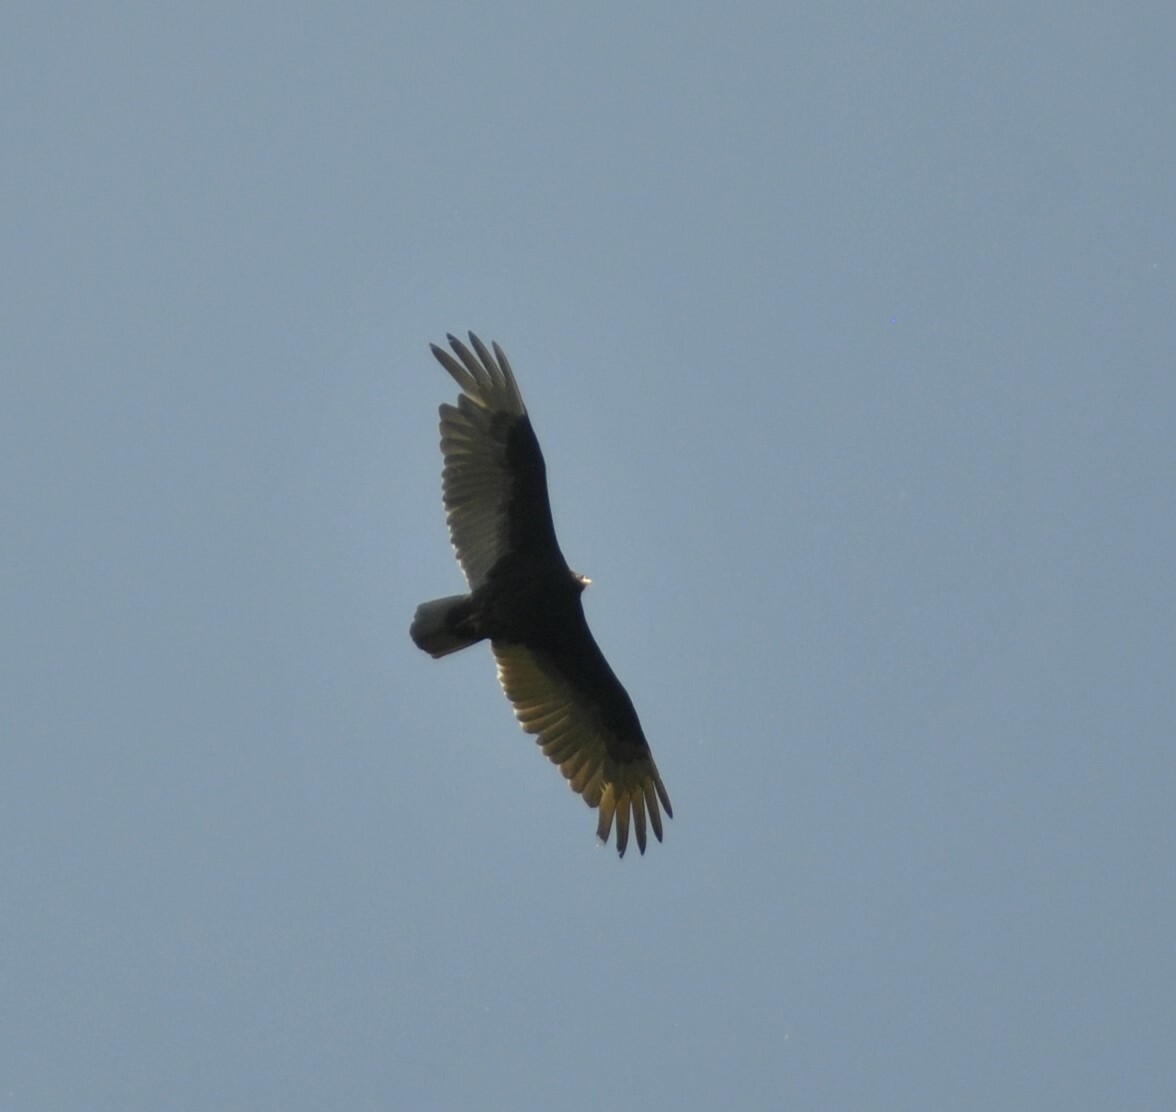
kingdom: Animalia
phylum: Chordata
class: Aves
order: Accipitriformes
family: Cathartidae
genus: Cathartes
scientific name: Cathartes aura
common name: Turkey vulture
